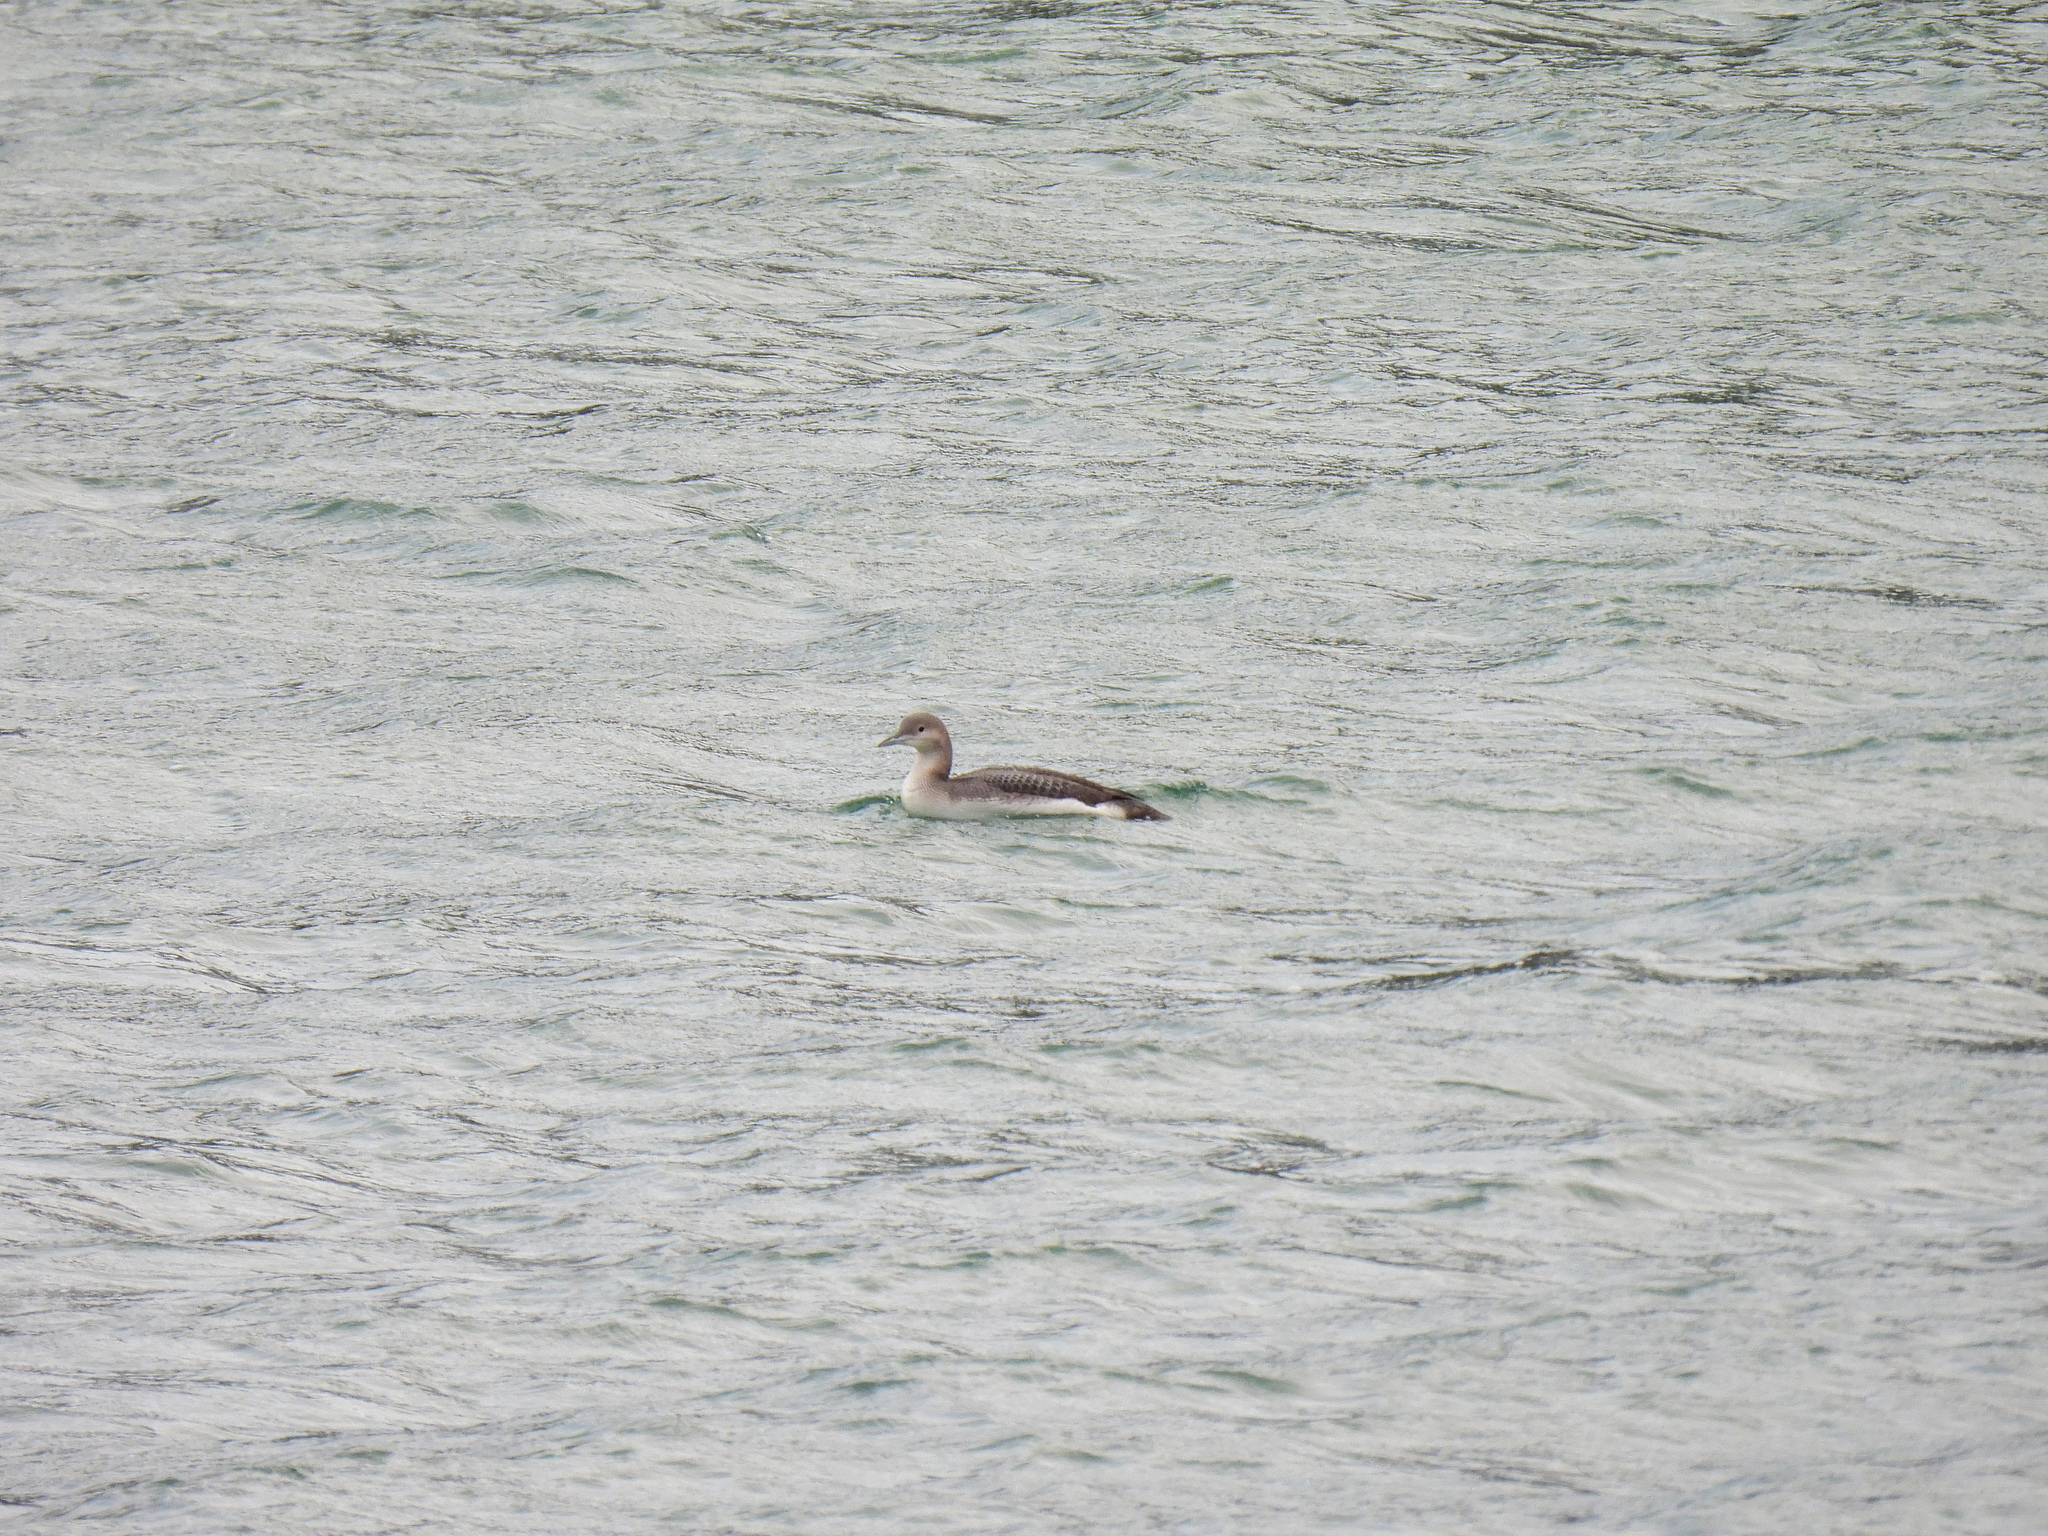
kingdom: Animalia
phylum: Chordata
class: Aves
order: Gaviiformes
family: Gaviidae
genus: Gavia
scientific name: Gavia arctica
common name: Black-throated loon
